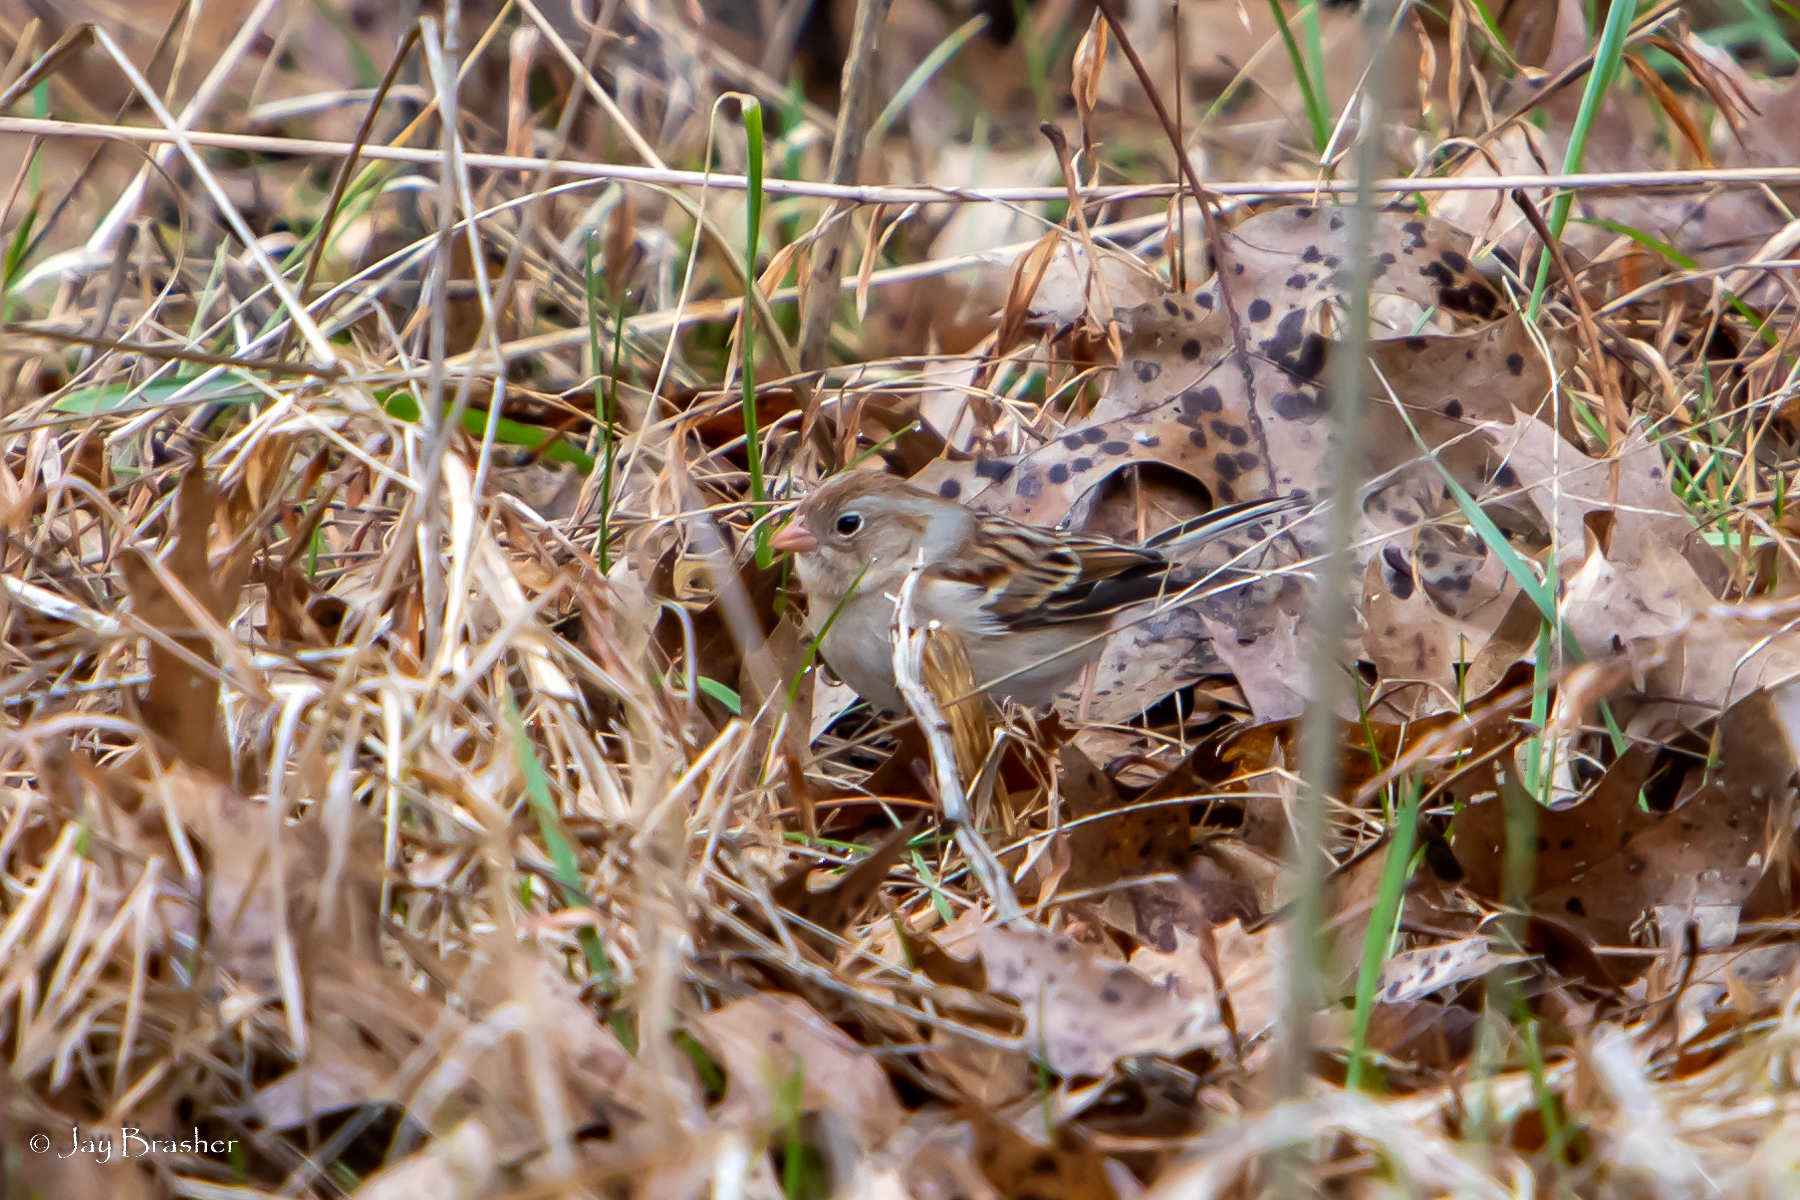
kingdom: Animalia
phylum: Chordata
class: Aves
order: Passeriformes
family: Passerellidae
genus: Spizella
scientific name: Spizella pusilla
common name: Field sparrow
